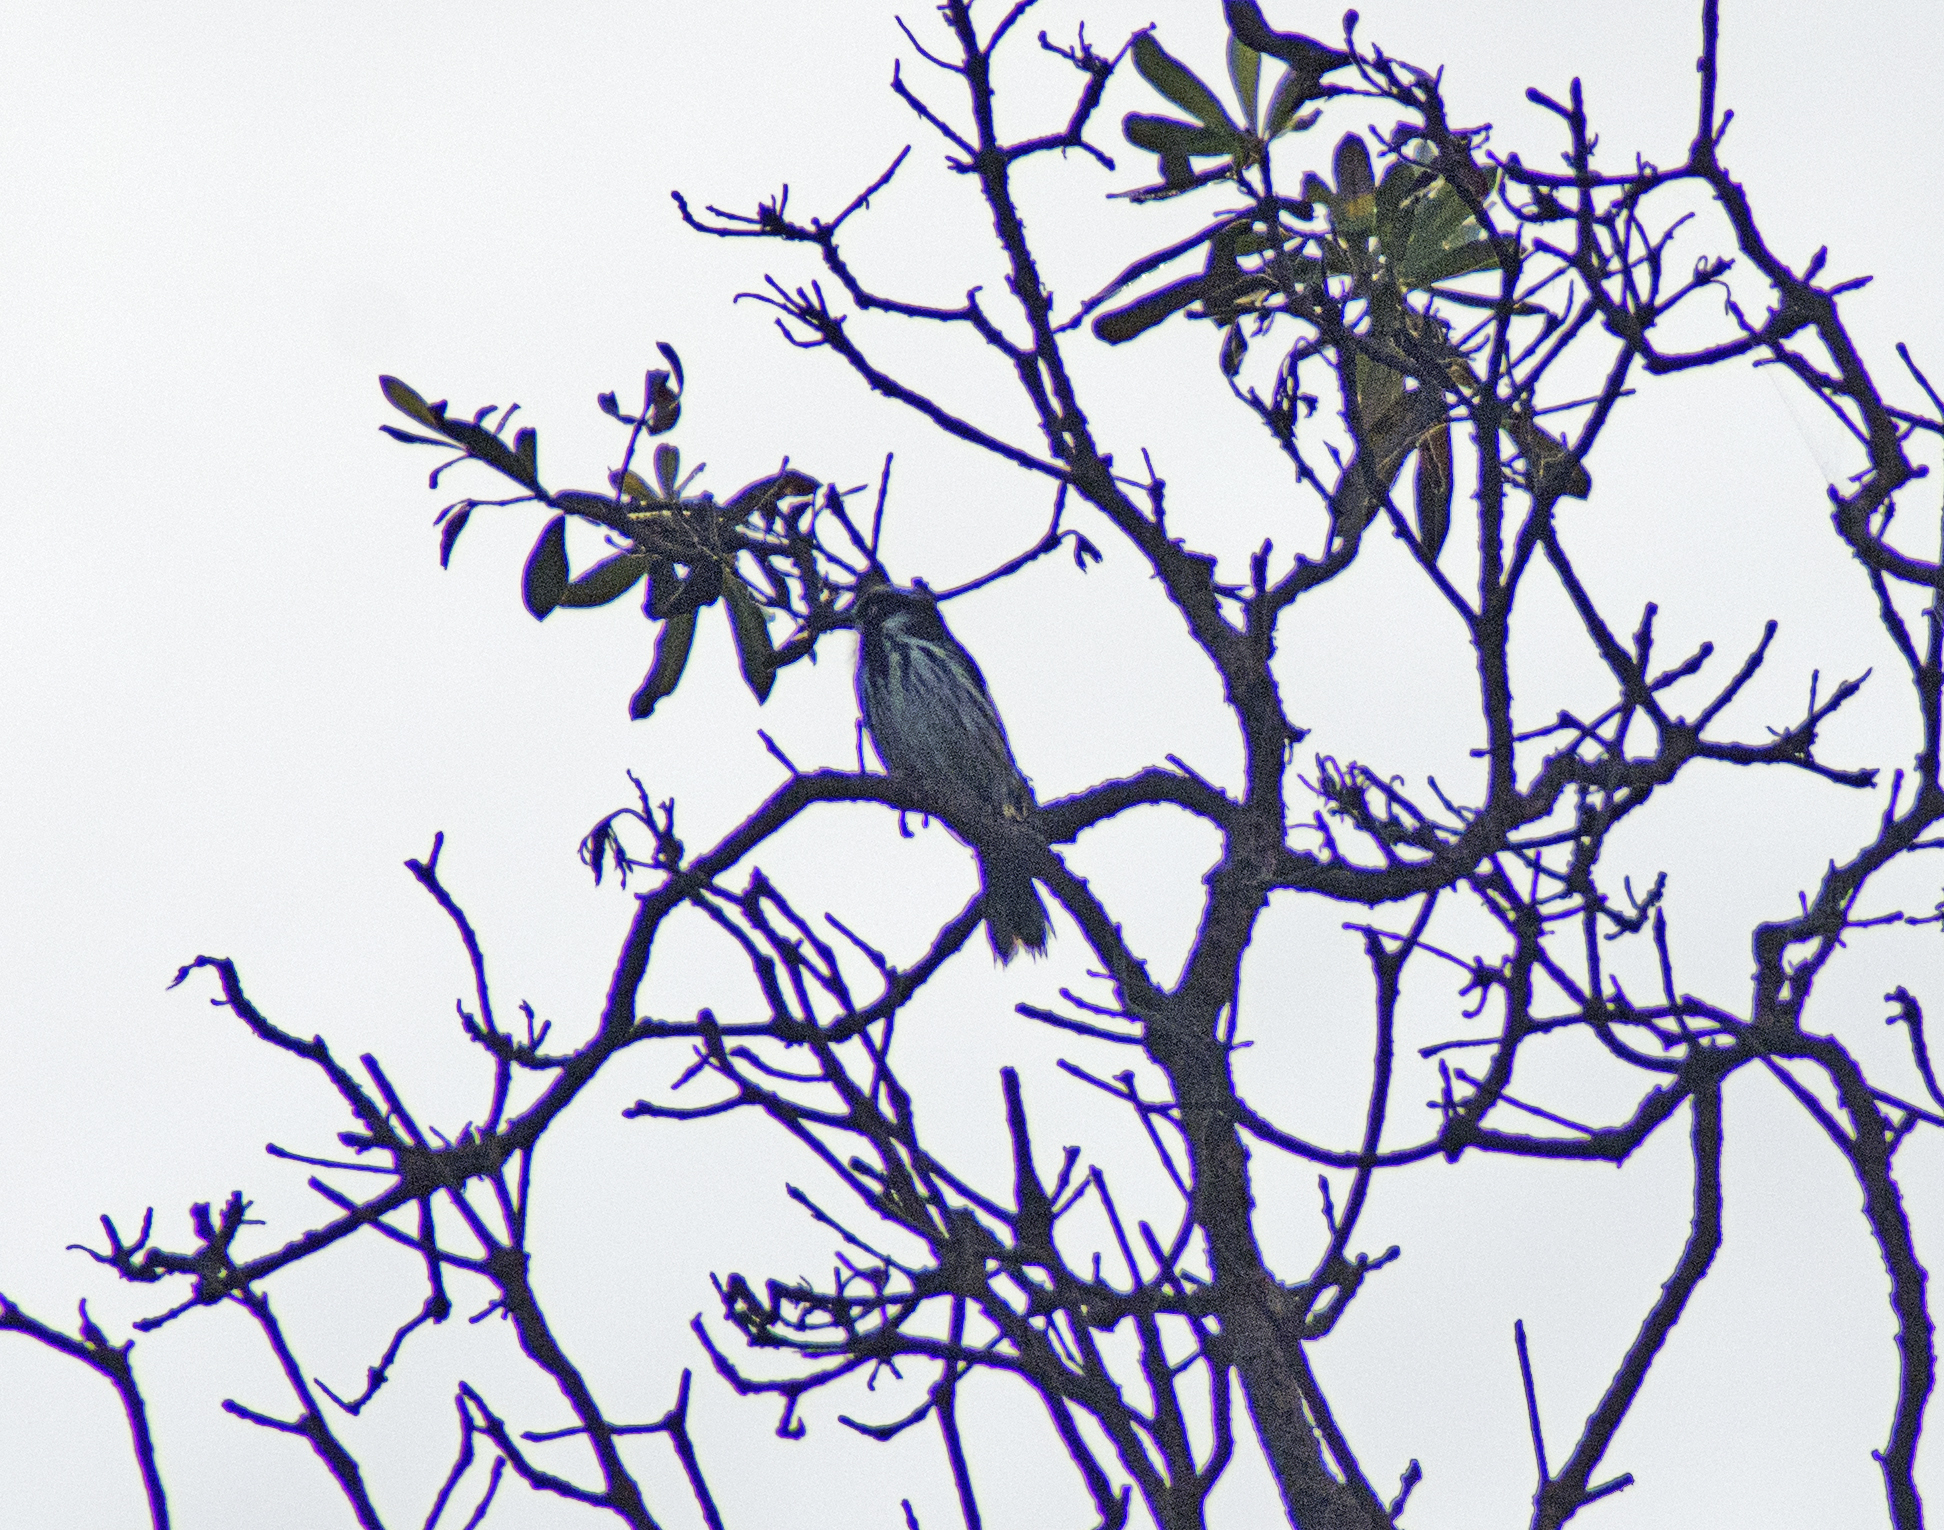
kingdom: Animalia
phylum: Chordata
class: Aves
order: Passeriformes
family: Meliphagidae
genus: Phylidonyris
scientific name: Phylidonyris novaehollandiae
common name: New holland honeyeater
